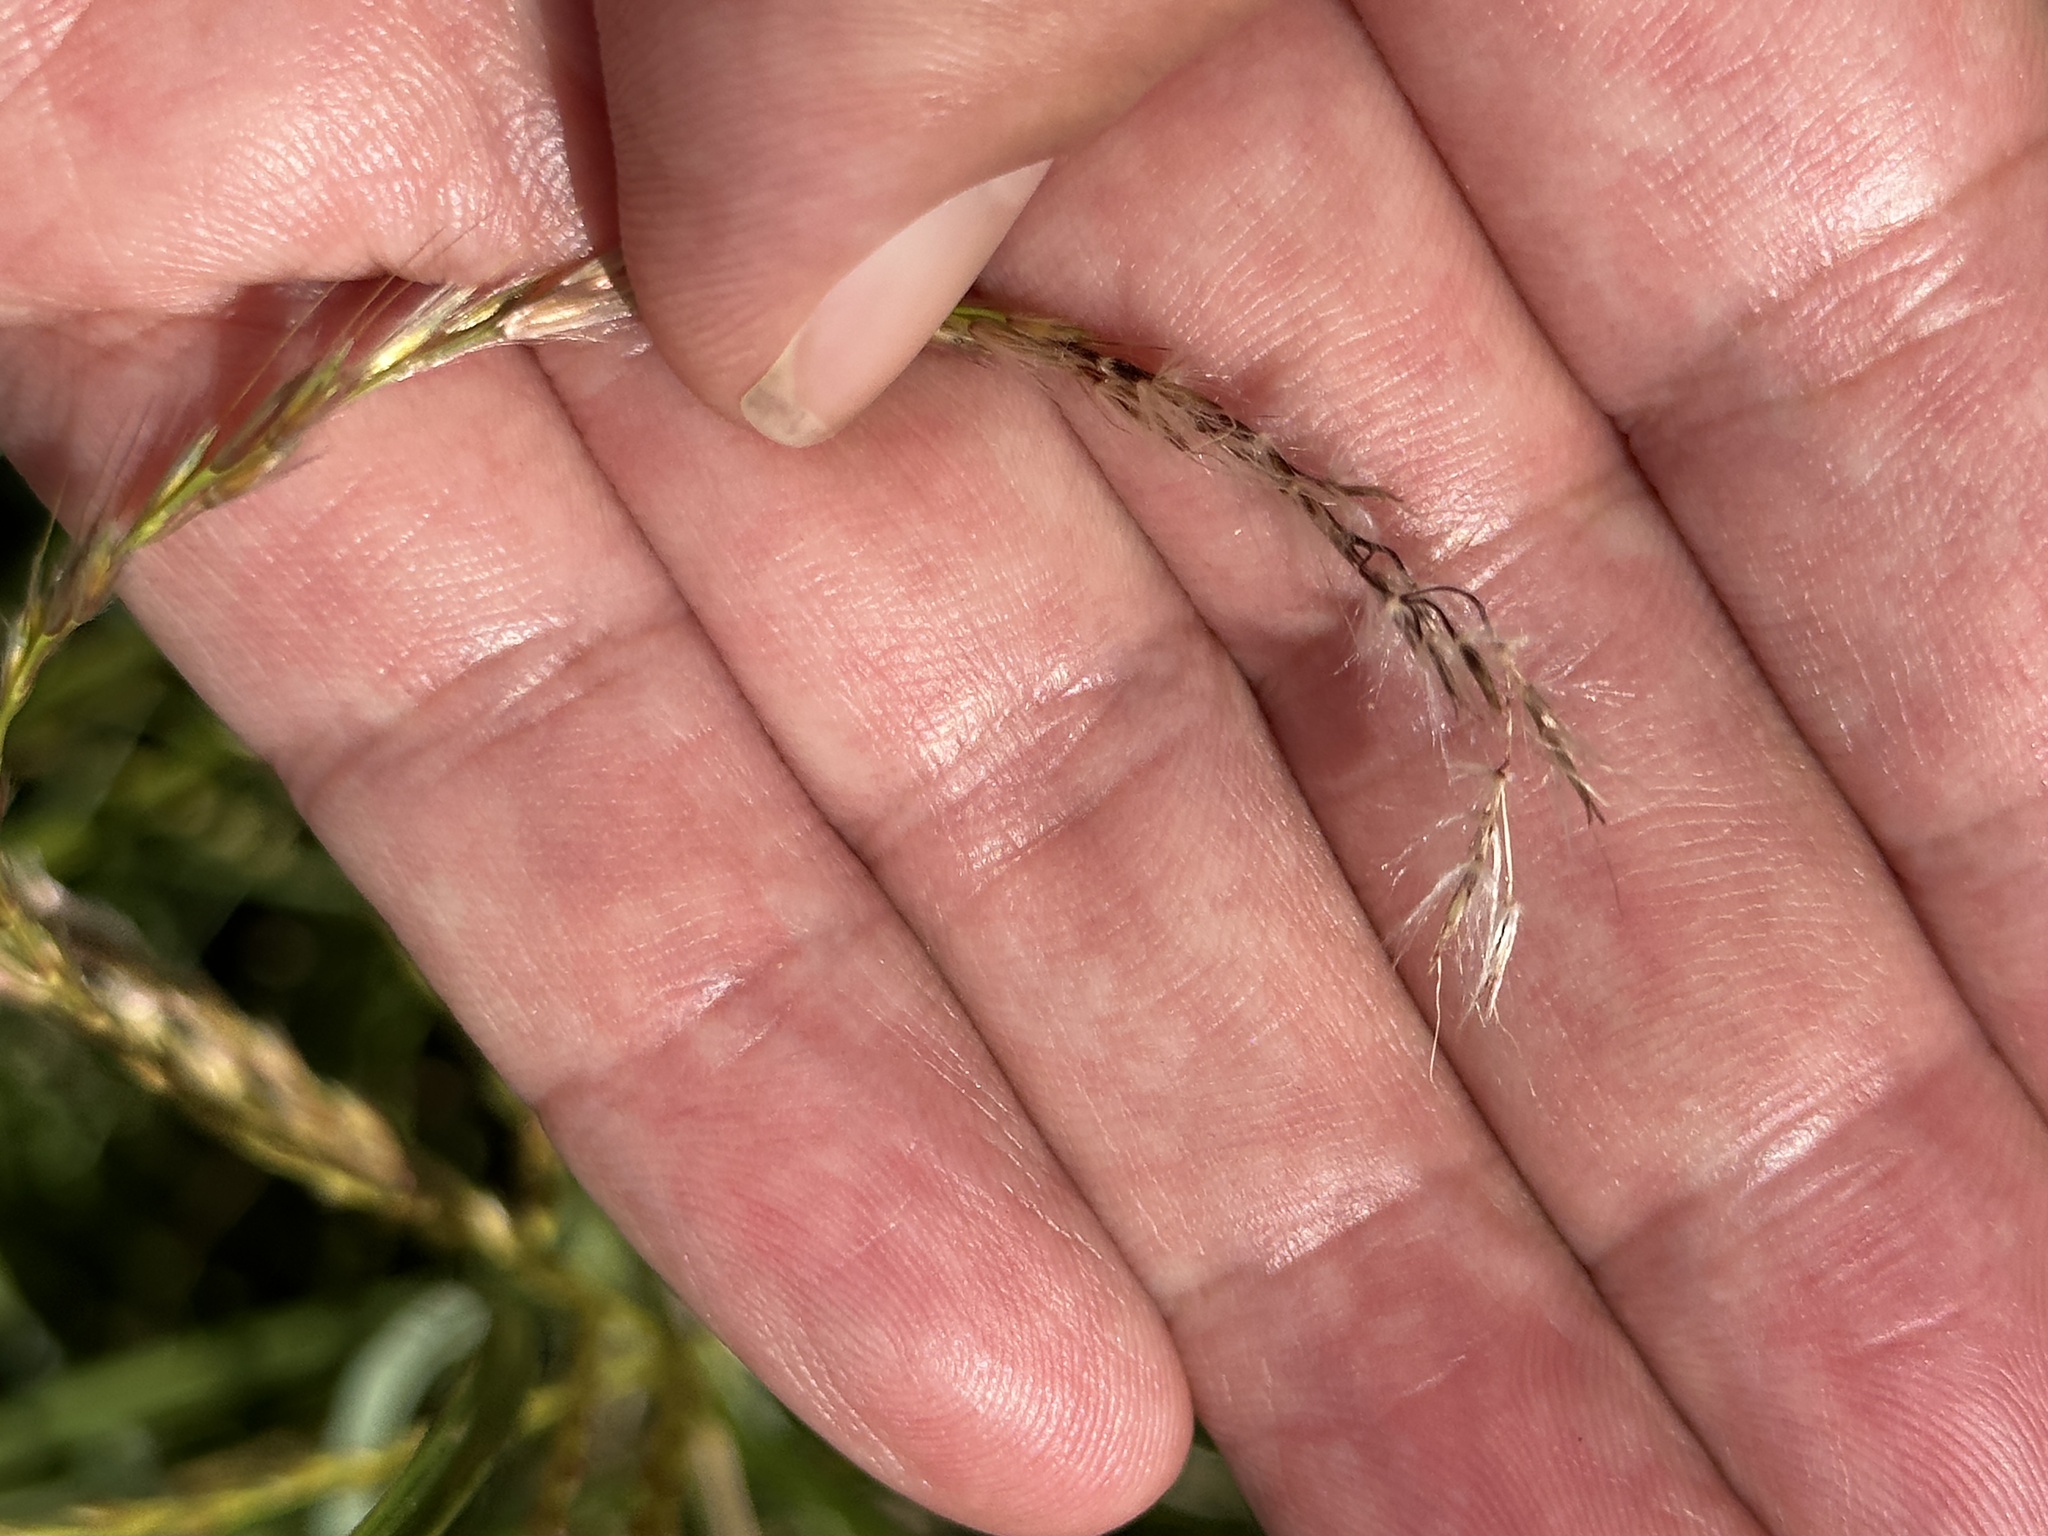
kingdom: Plantae
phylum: Tracheophyta
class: Liliopsida
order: Poales
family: Poaceae
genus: Miscanthus
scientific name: Miscanthus sinensis
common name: Chinese silvergrass
